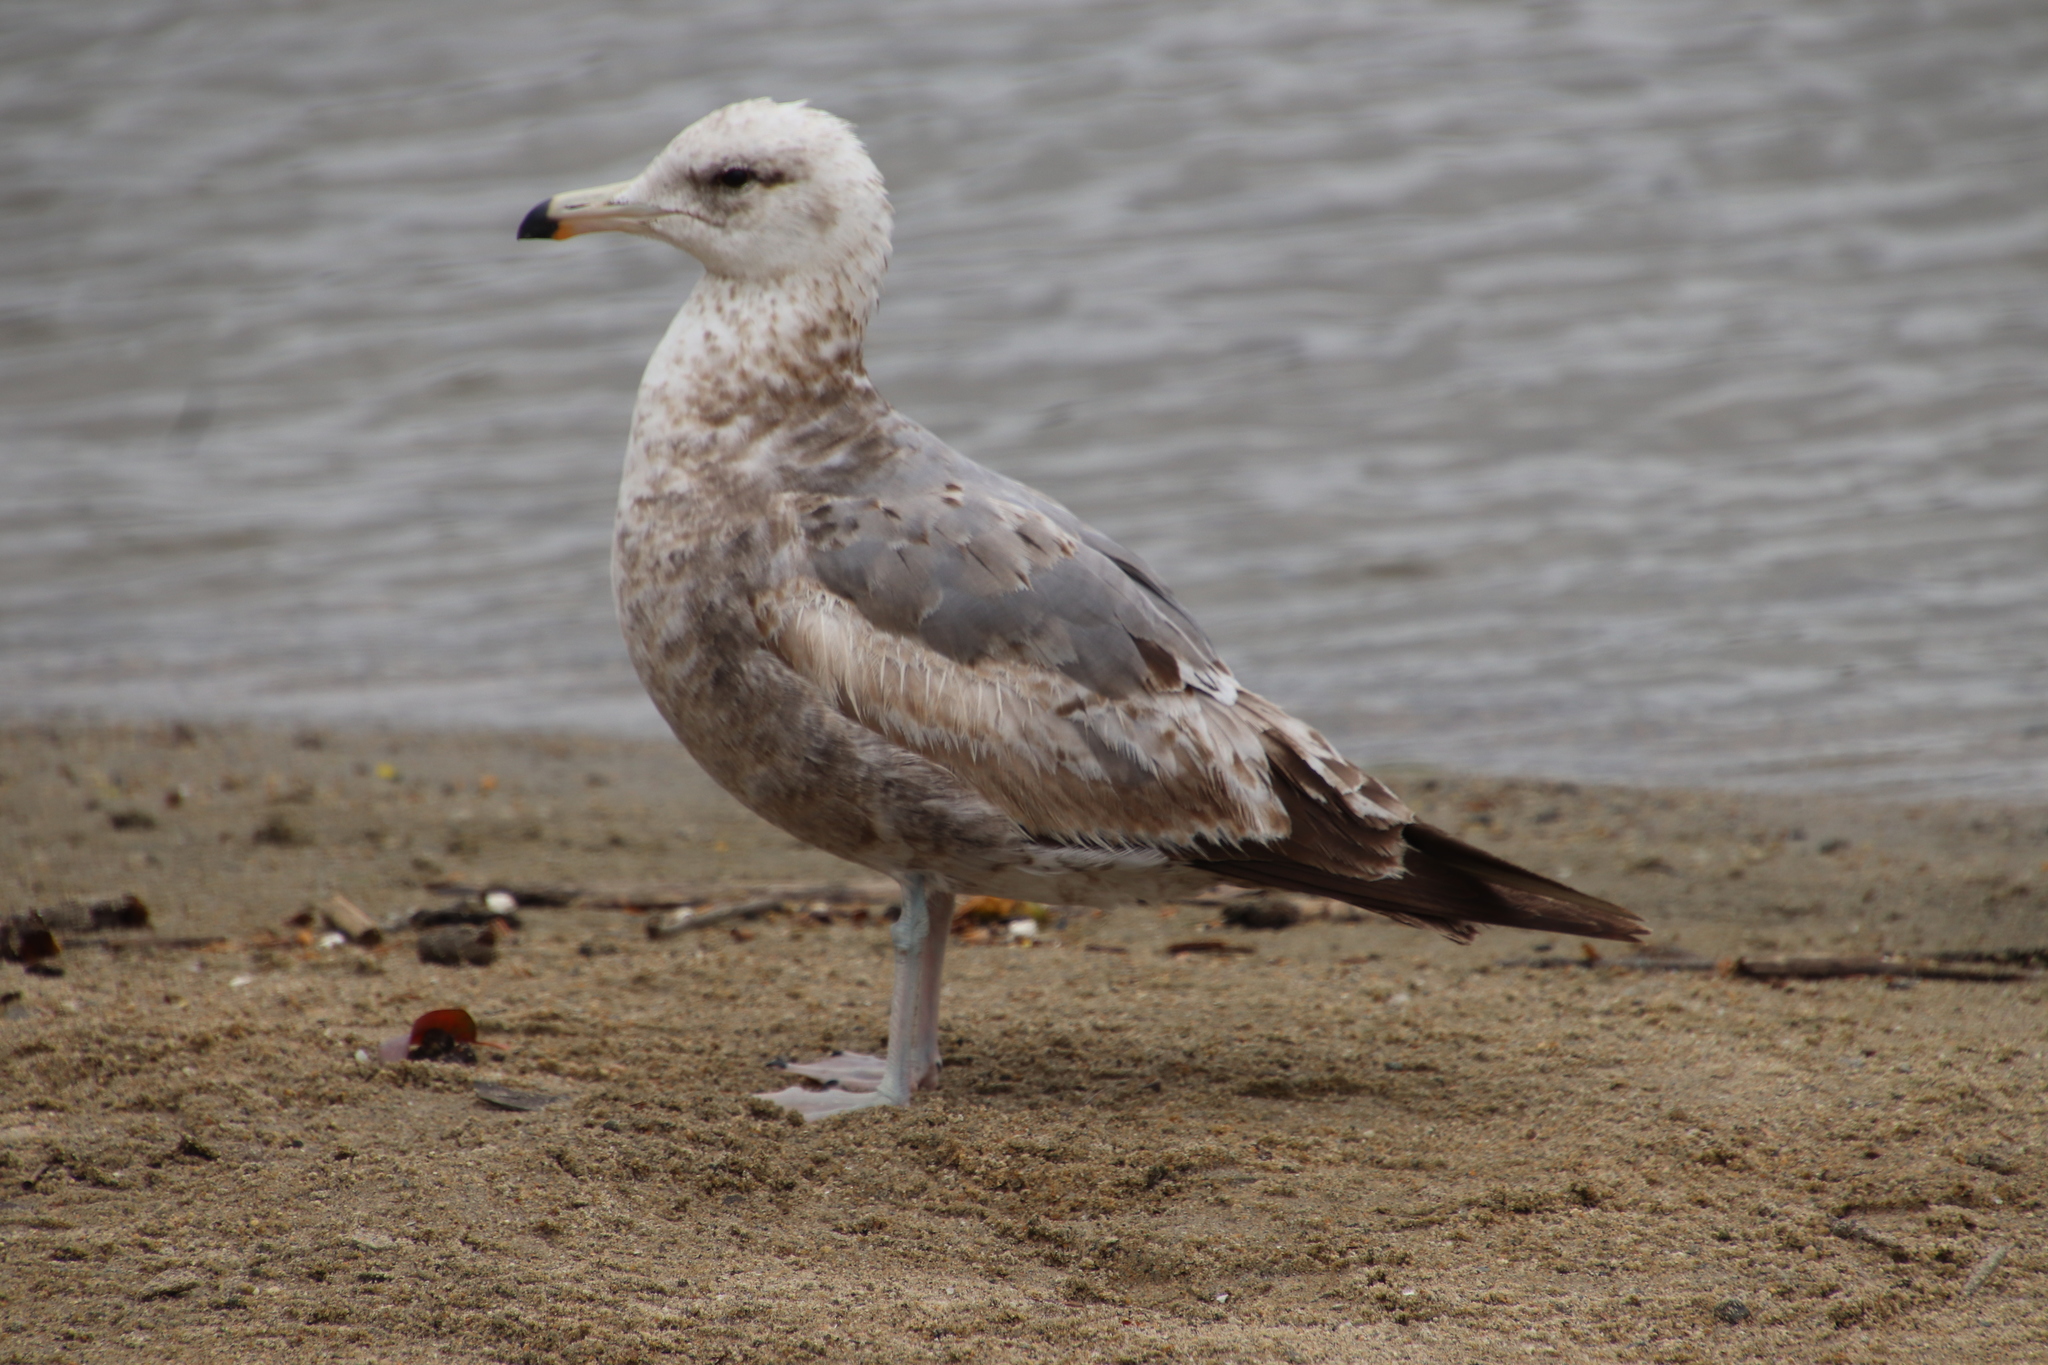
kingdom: Animalia
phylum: Chordata
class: Aves
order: Charadriiformes
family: Laridae
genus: Larus
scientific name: Larus californicus
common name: California gull
